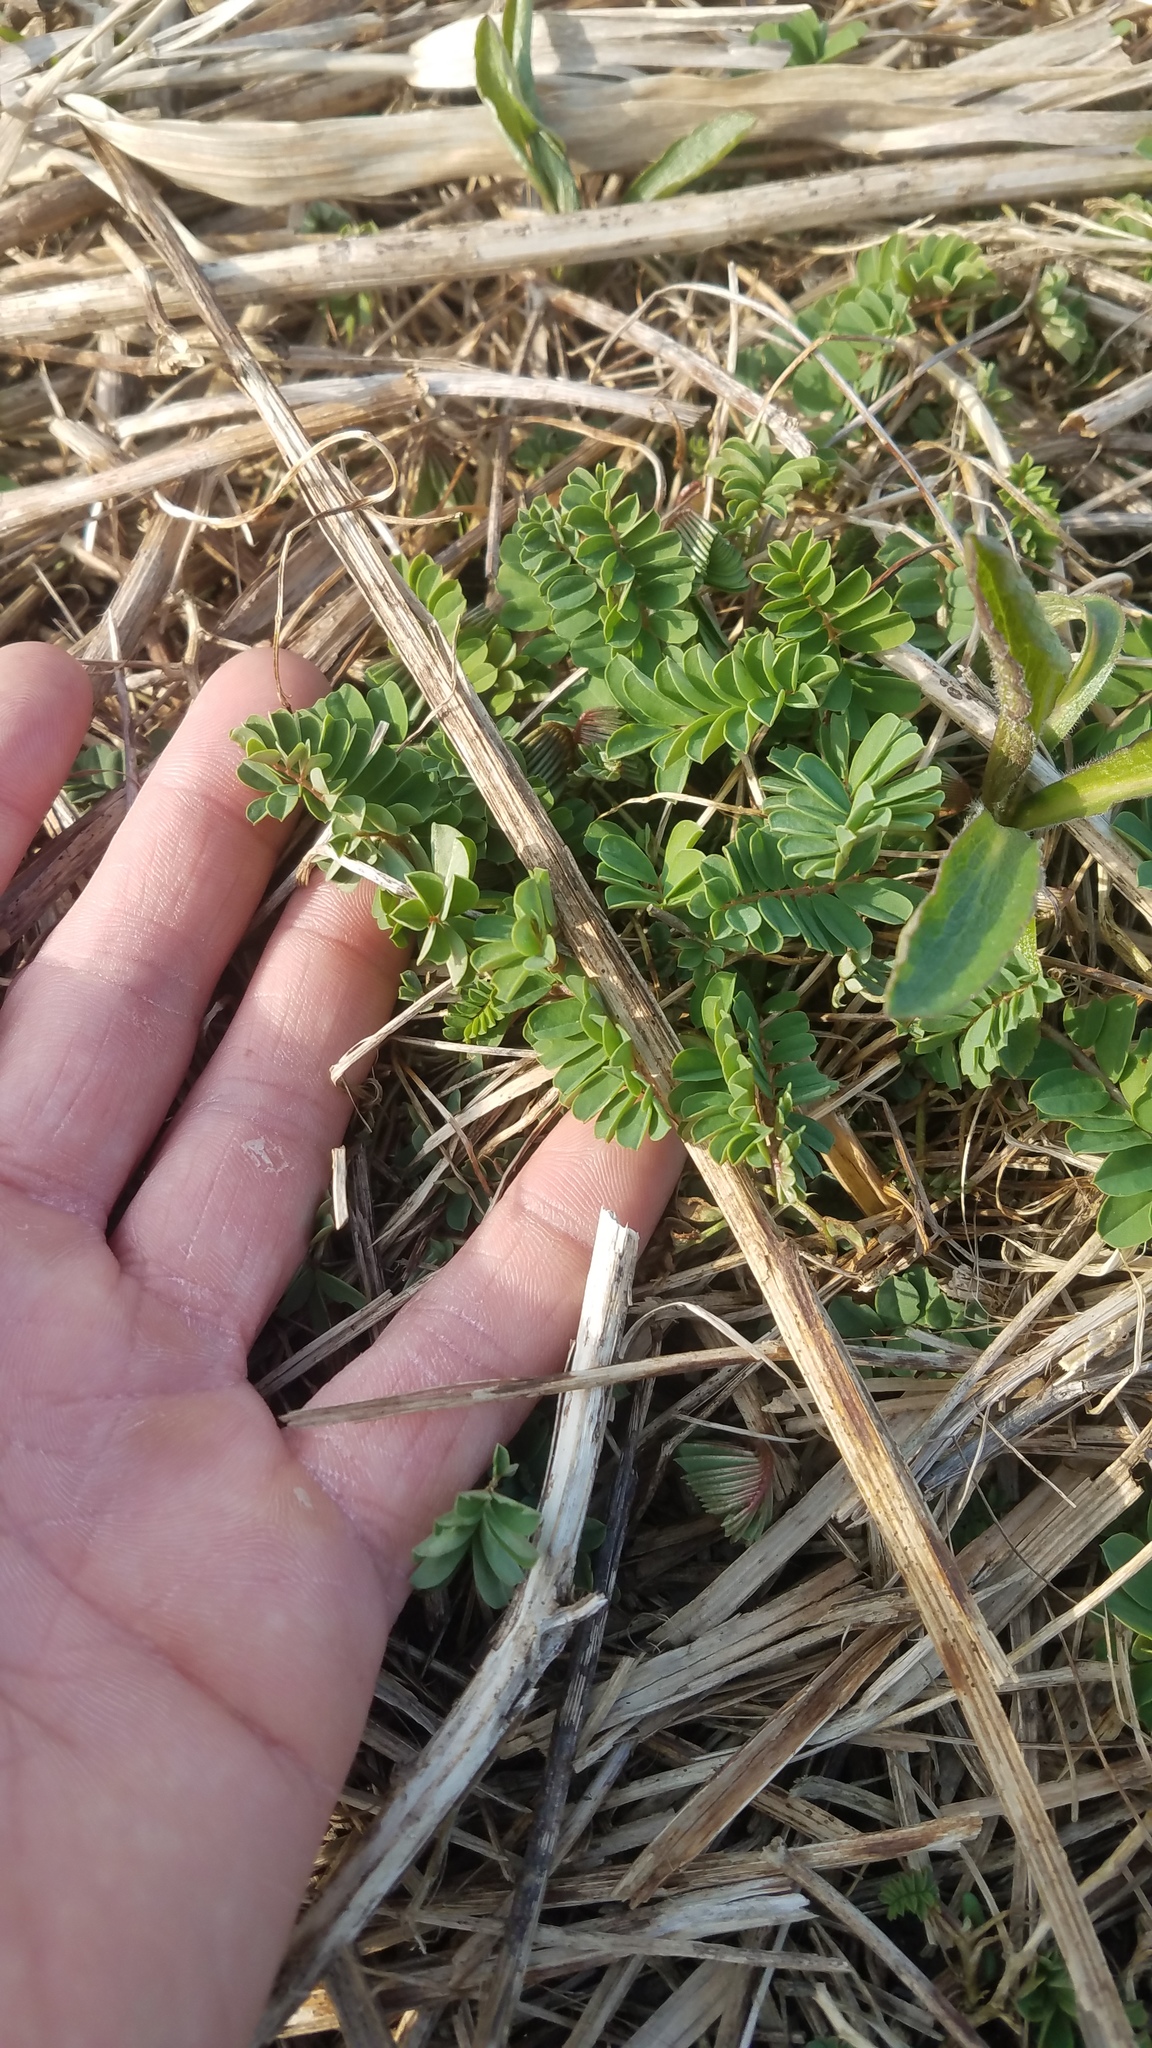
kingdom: Plantae
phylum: Tracheophyta
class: Magnoliopsida
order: Fabales
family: Fabaceae
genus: Coronilla
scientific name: Coronilla varia
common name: Crownvetch
